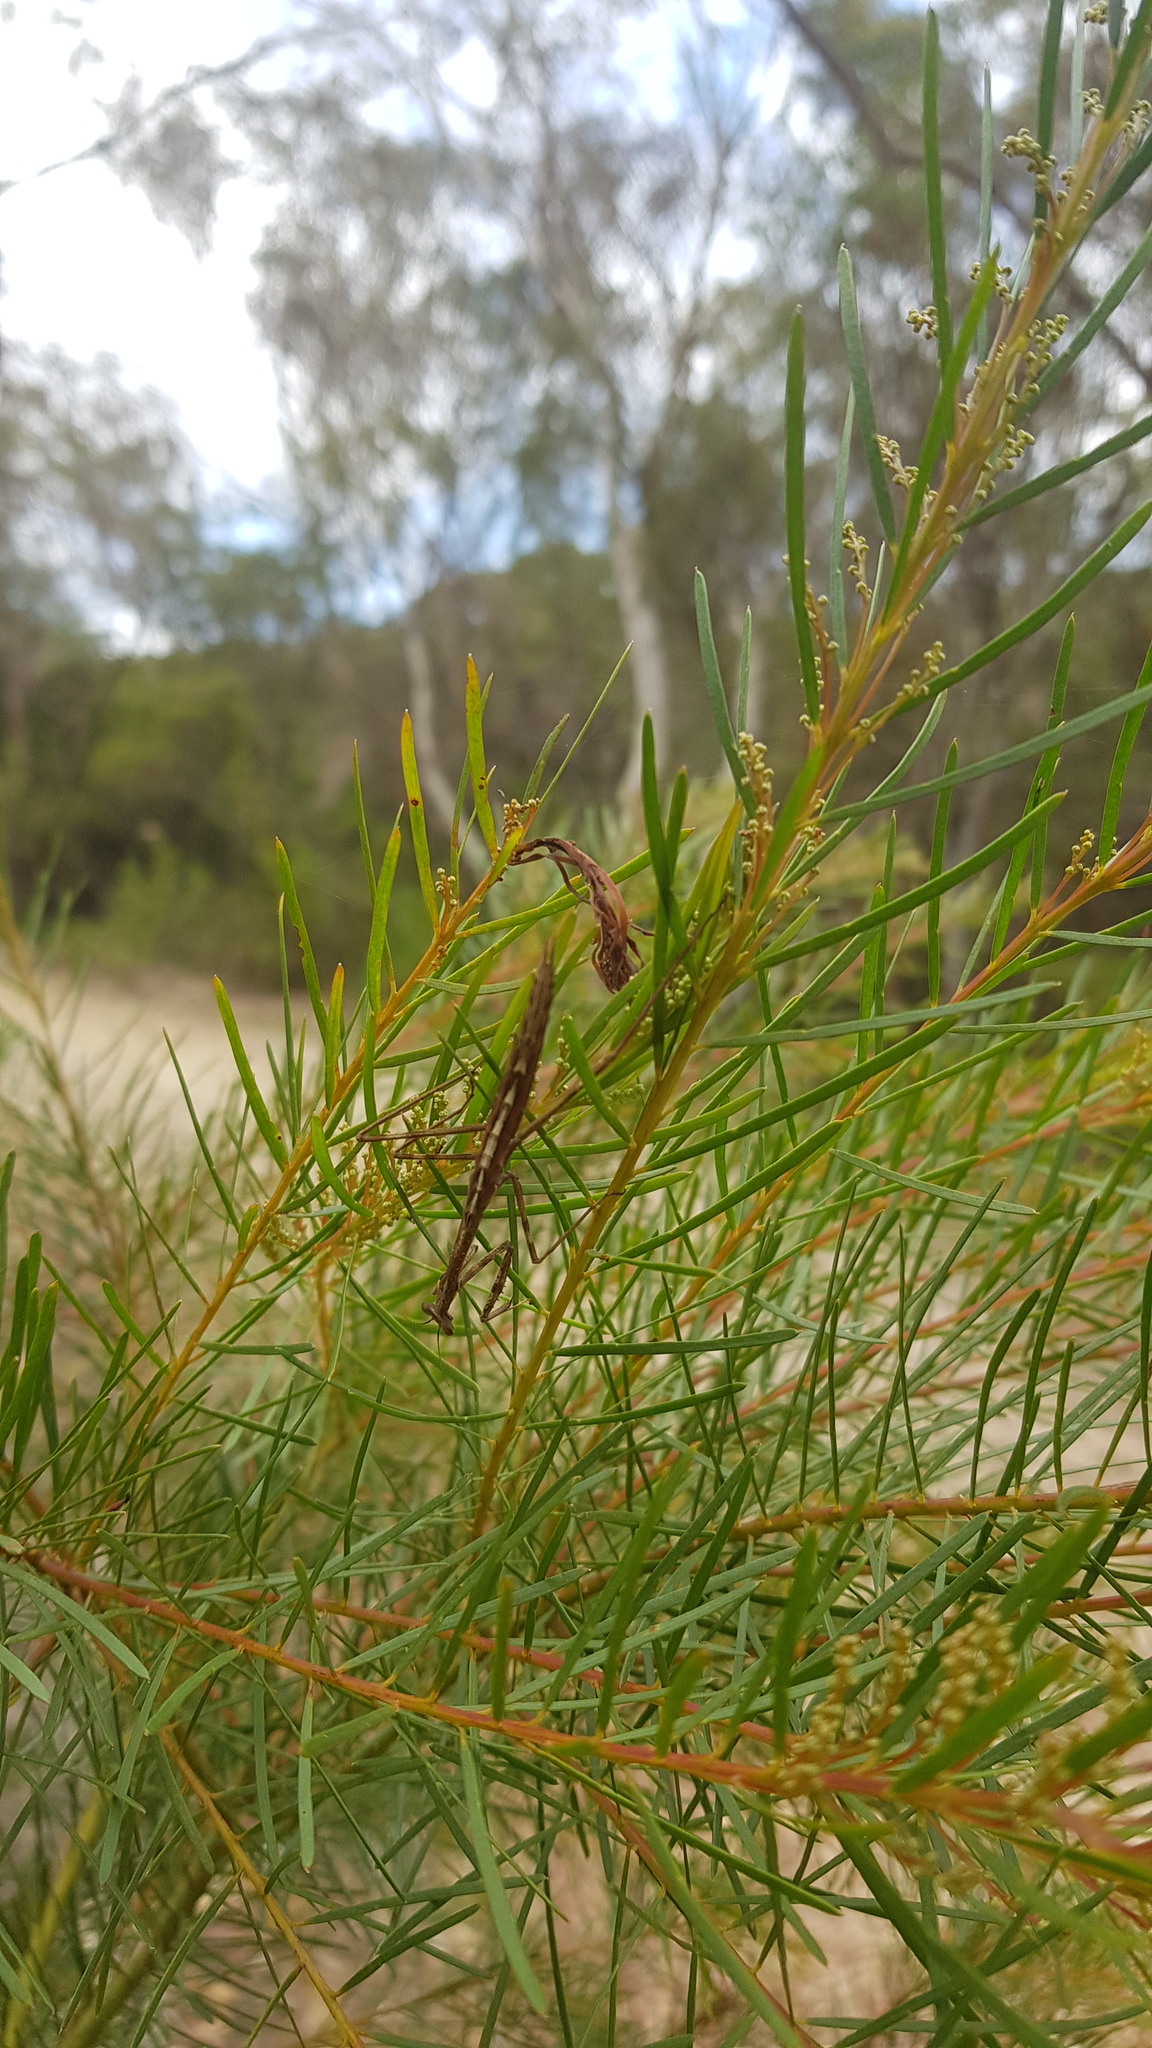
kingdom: Animalia
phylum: Arthropoda
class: Insecta
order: Mantodea
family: Mantidae
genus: Archimantis
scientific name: Archimantis latistyla
